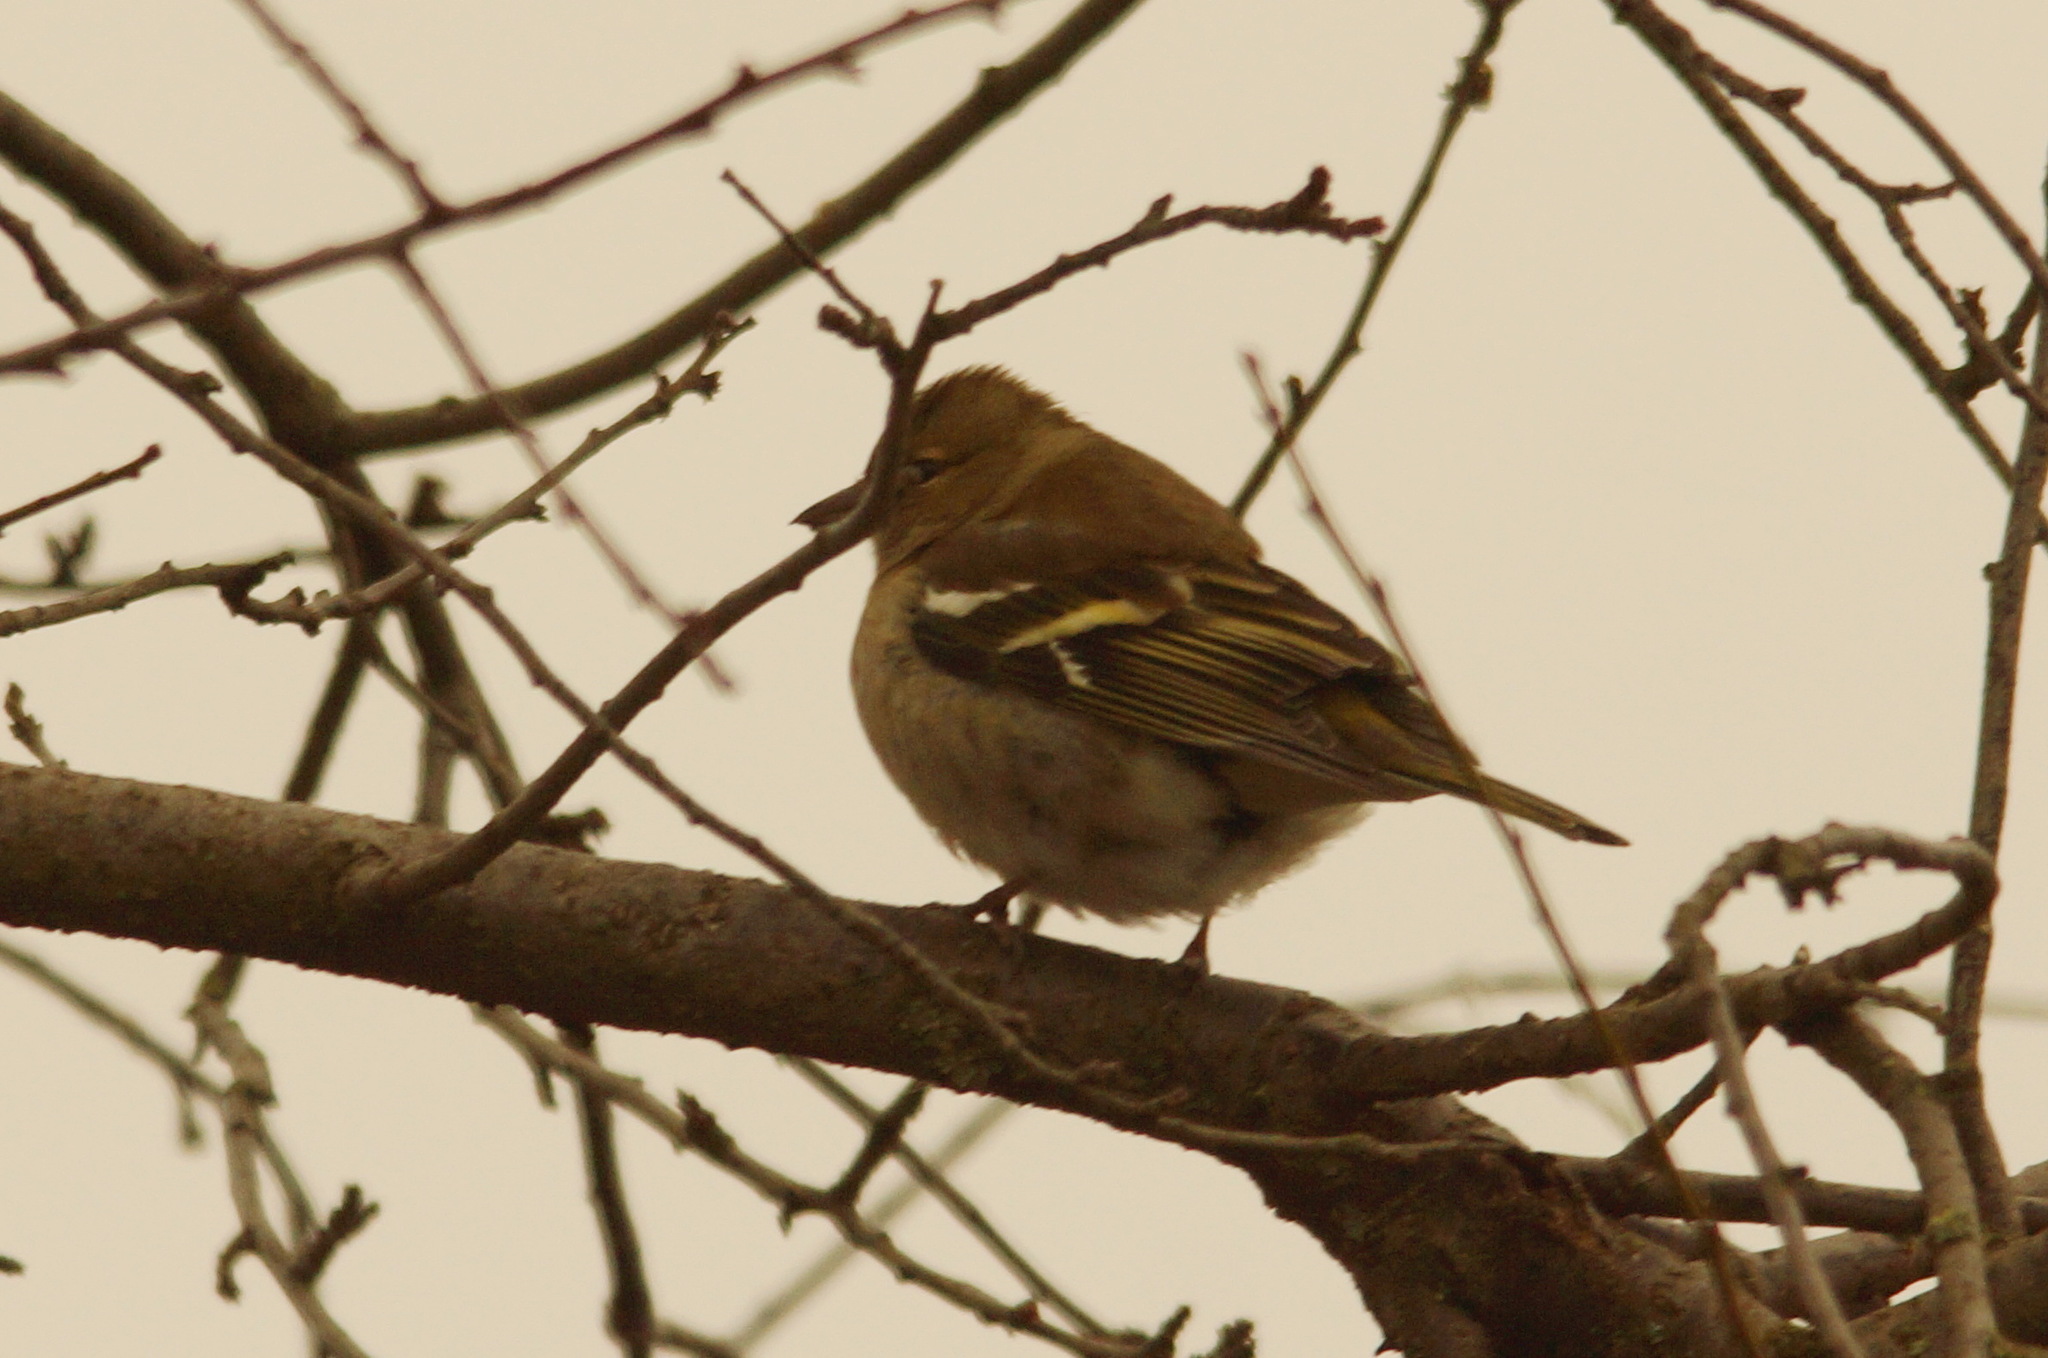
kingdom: Animalia
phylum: Chordata
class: Aves
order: Passeriformes
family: Fringillidae
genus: Fringilla
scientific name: Fringilla coelebs
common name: Common chaffinch
